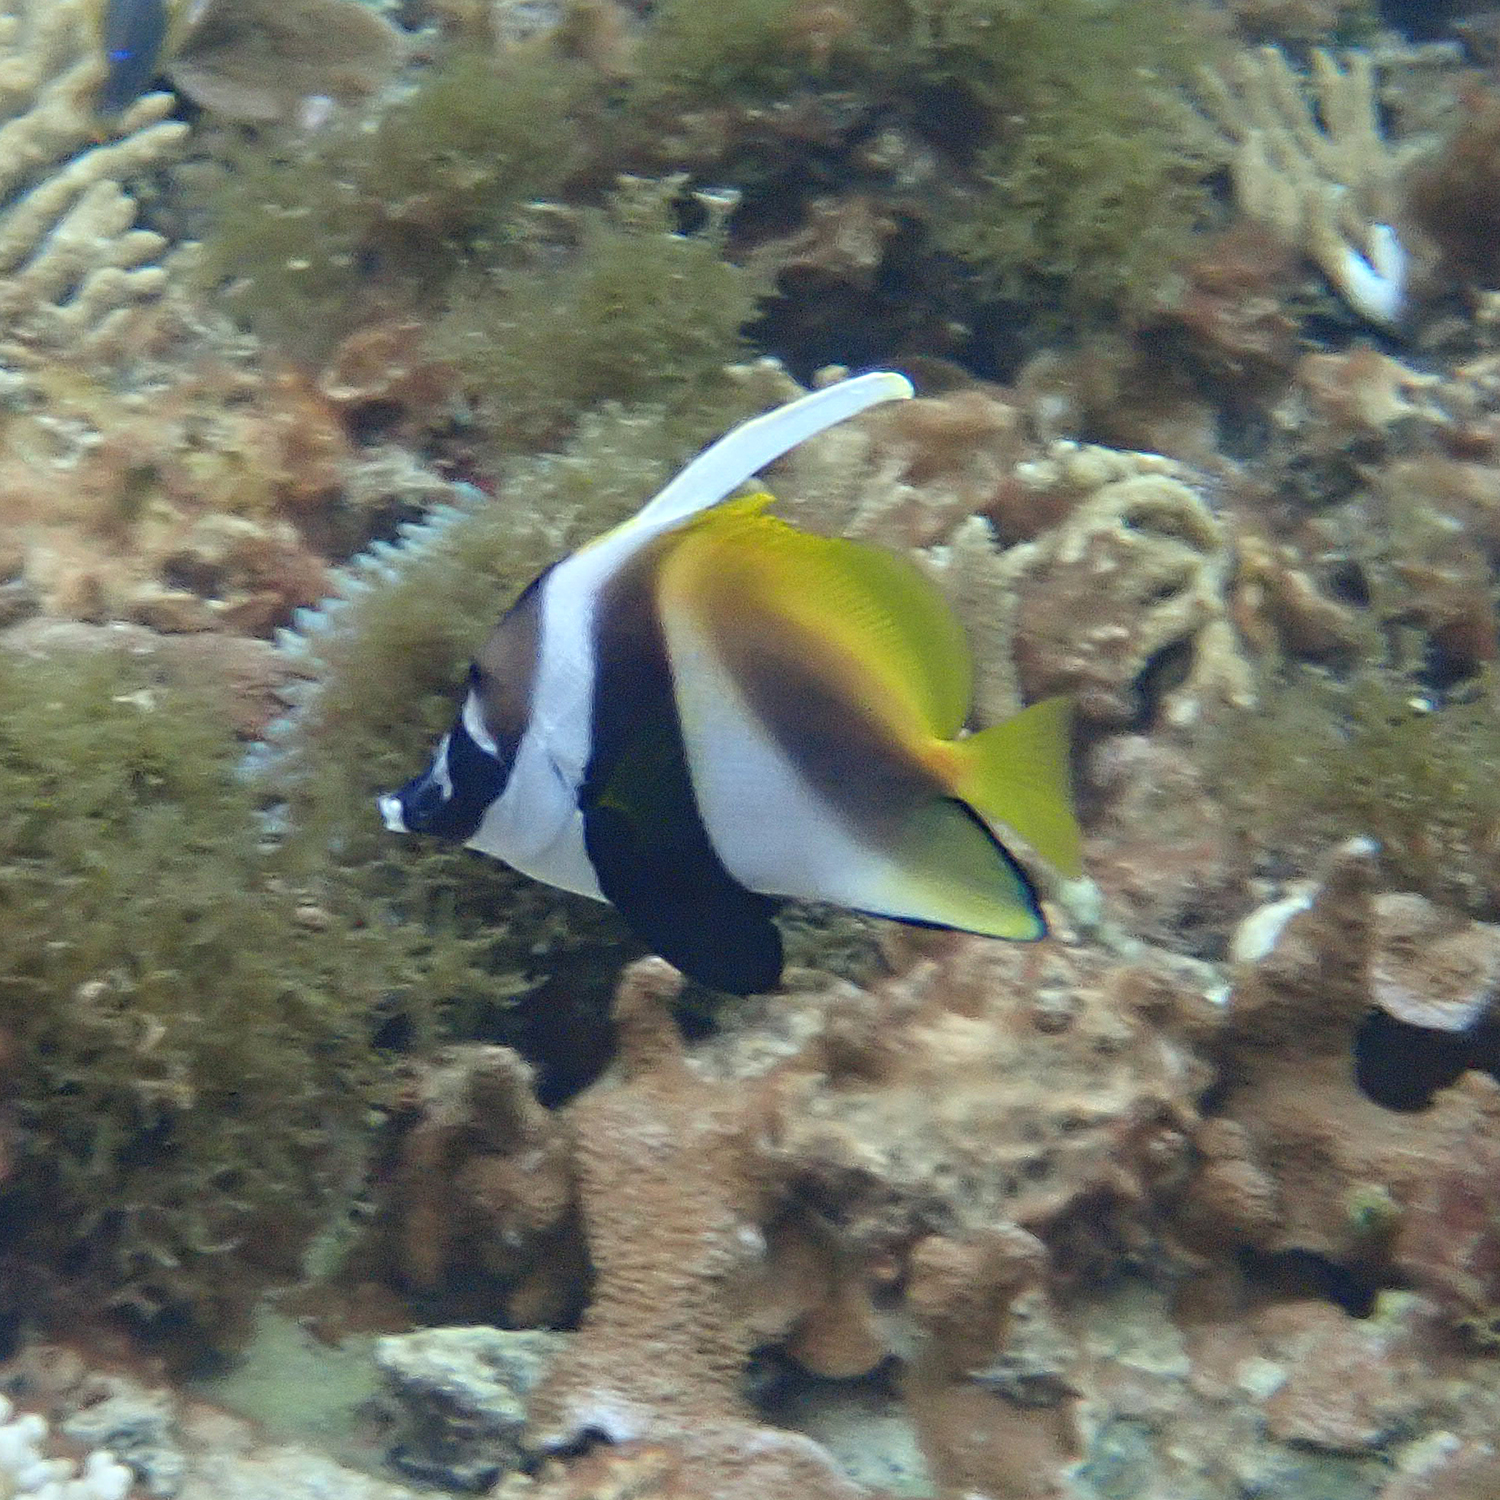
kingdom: Animalia
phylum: Chordata
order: Perciformes
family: Chaetodontidae
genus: Heniochus
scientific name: Heniochus monoceros
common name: Masked bannerfish
